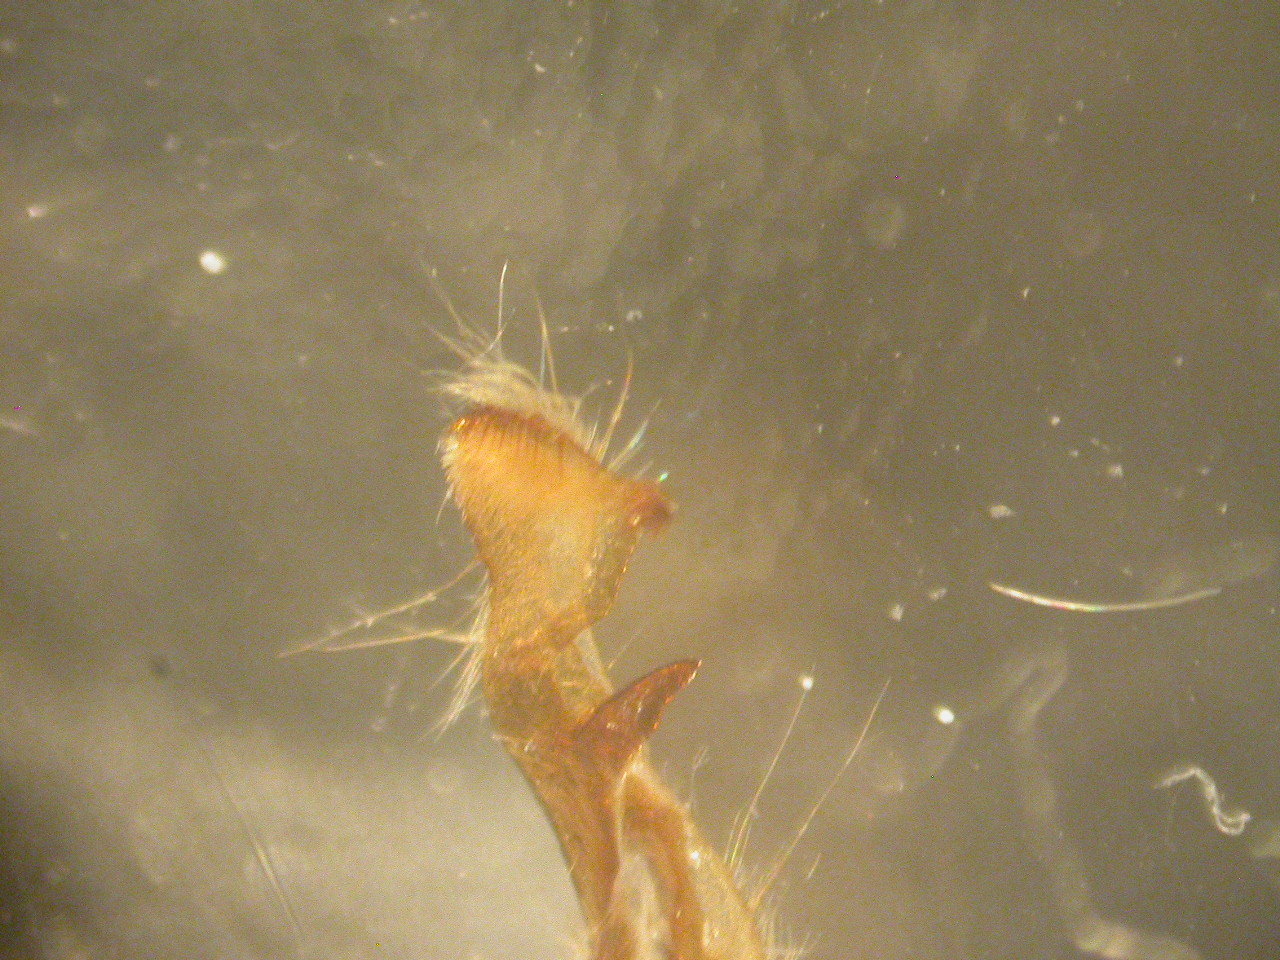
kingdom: Animalia
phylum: Arthropoda
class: Insecta
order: Lepidoptera
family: Noctuidae
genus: Oligia
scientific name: Oligia latruncula
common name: Tawny marbled minor
